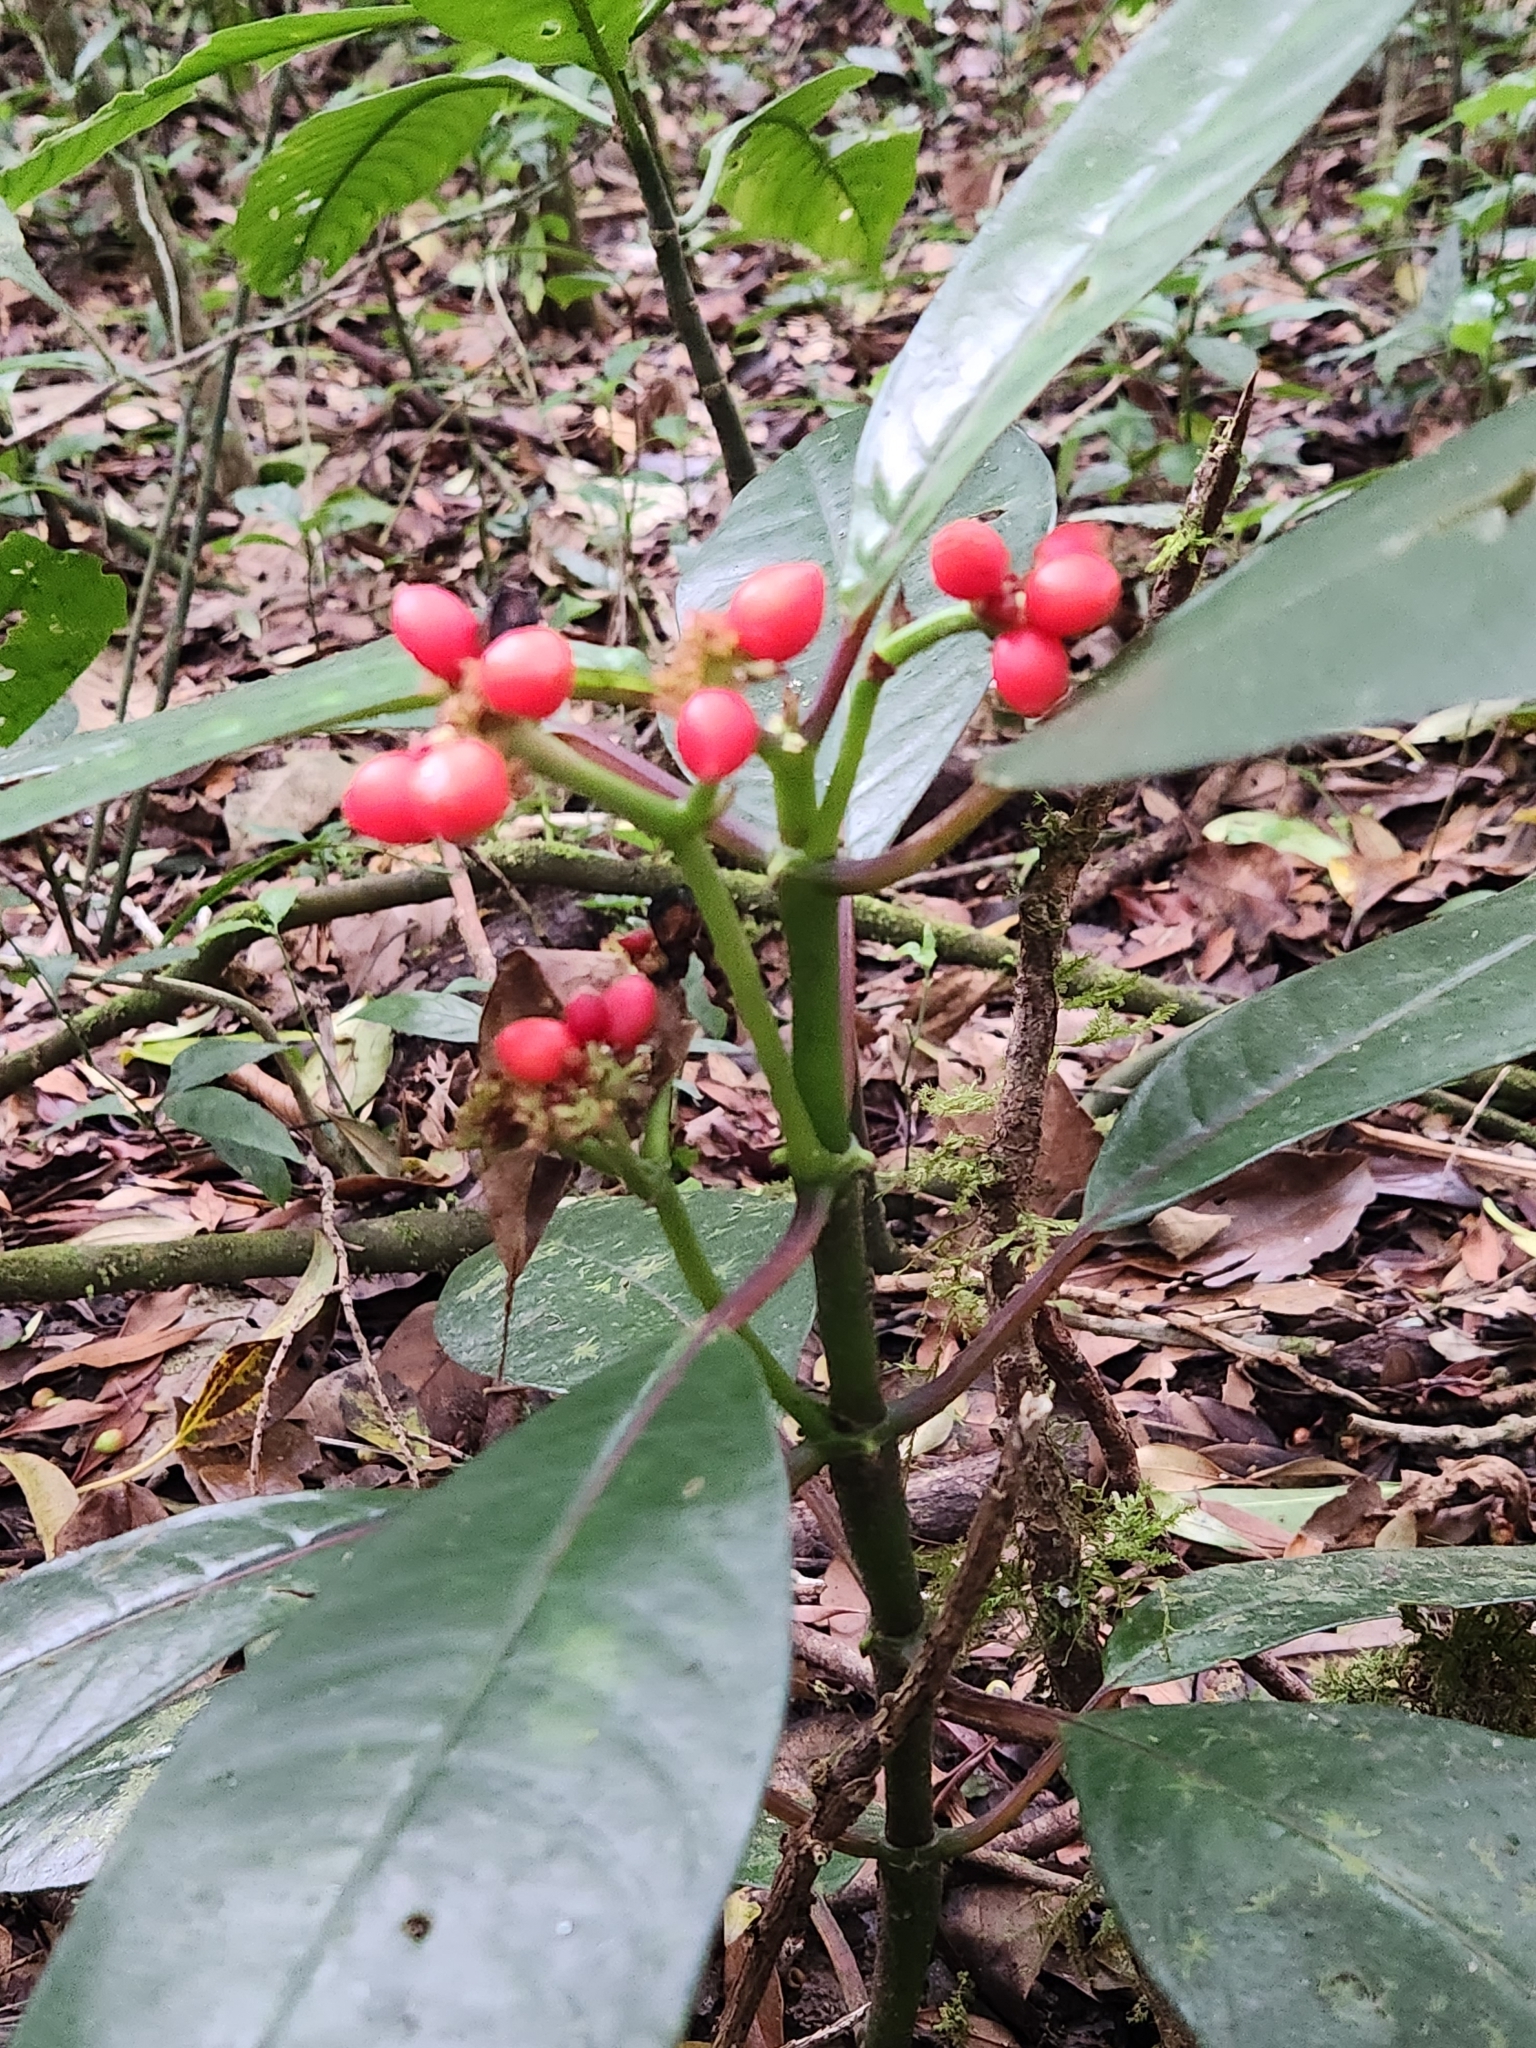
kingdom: Plantae
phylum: Tracheophyta
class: Magnoliopsida
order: Gentianales
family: Rubiaceae
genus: Notopleura
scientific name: Notopleura uliginosa
